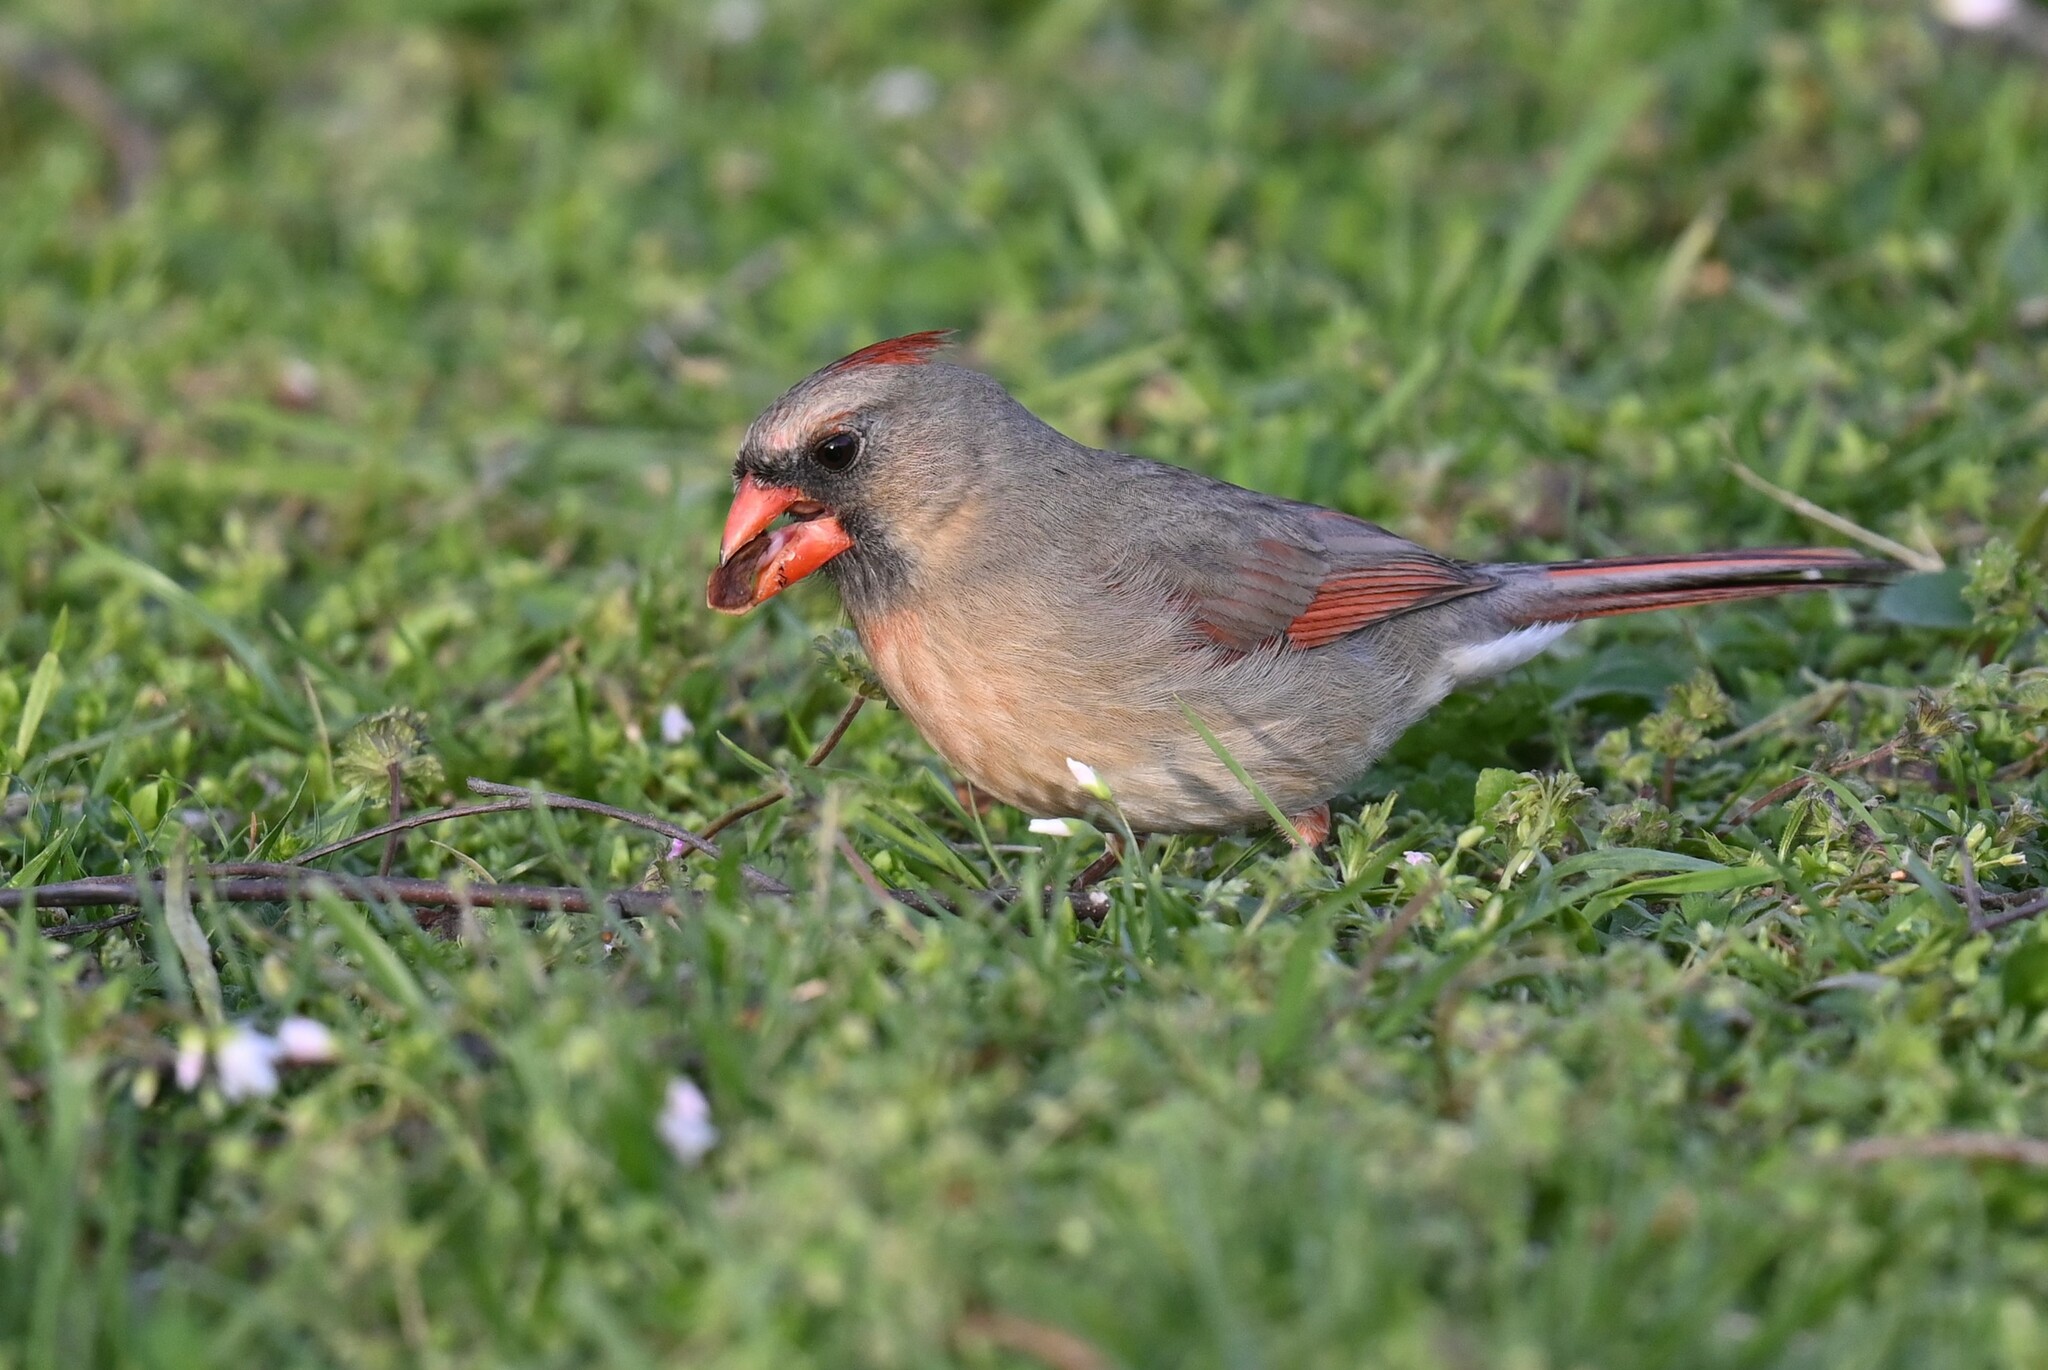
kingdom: Animalia
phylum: Chordata
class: Aves
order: Passeriformes
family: Cardinalidae
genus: Cardinalis
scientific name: Cardinalis cardinalis
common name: Northern cardinal
